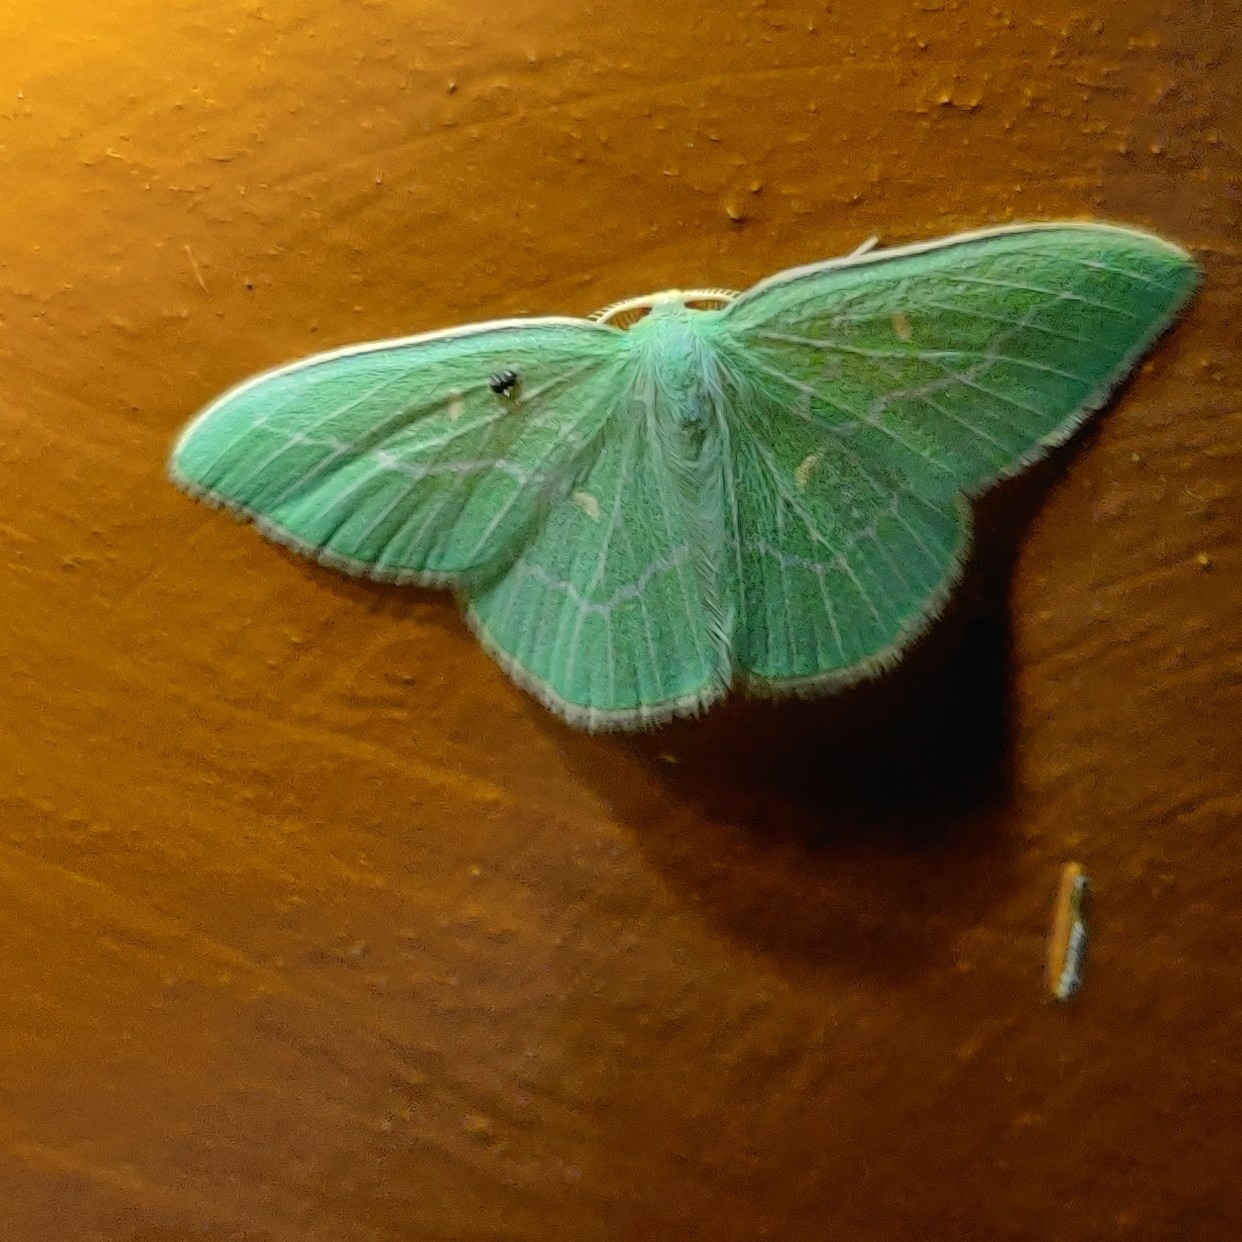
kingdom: Animalia
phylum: Arthropoda
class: Insecta
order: Lepidoptera
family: Geometridae
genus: Hemistola
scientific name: Hemistola loxiaria
